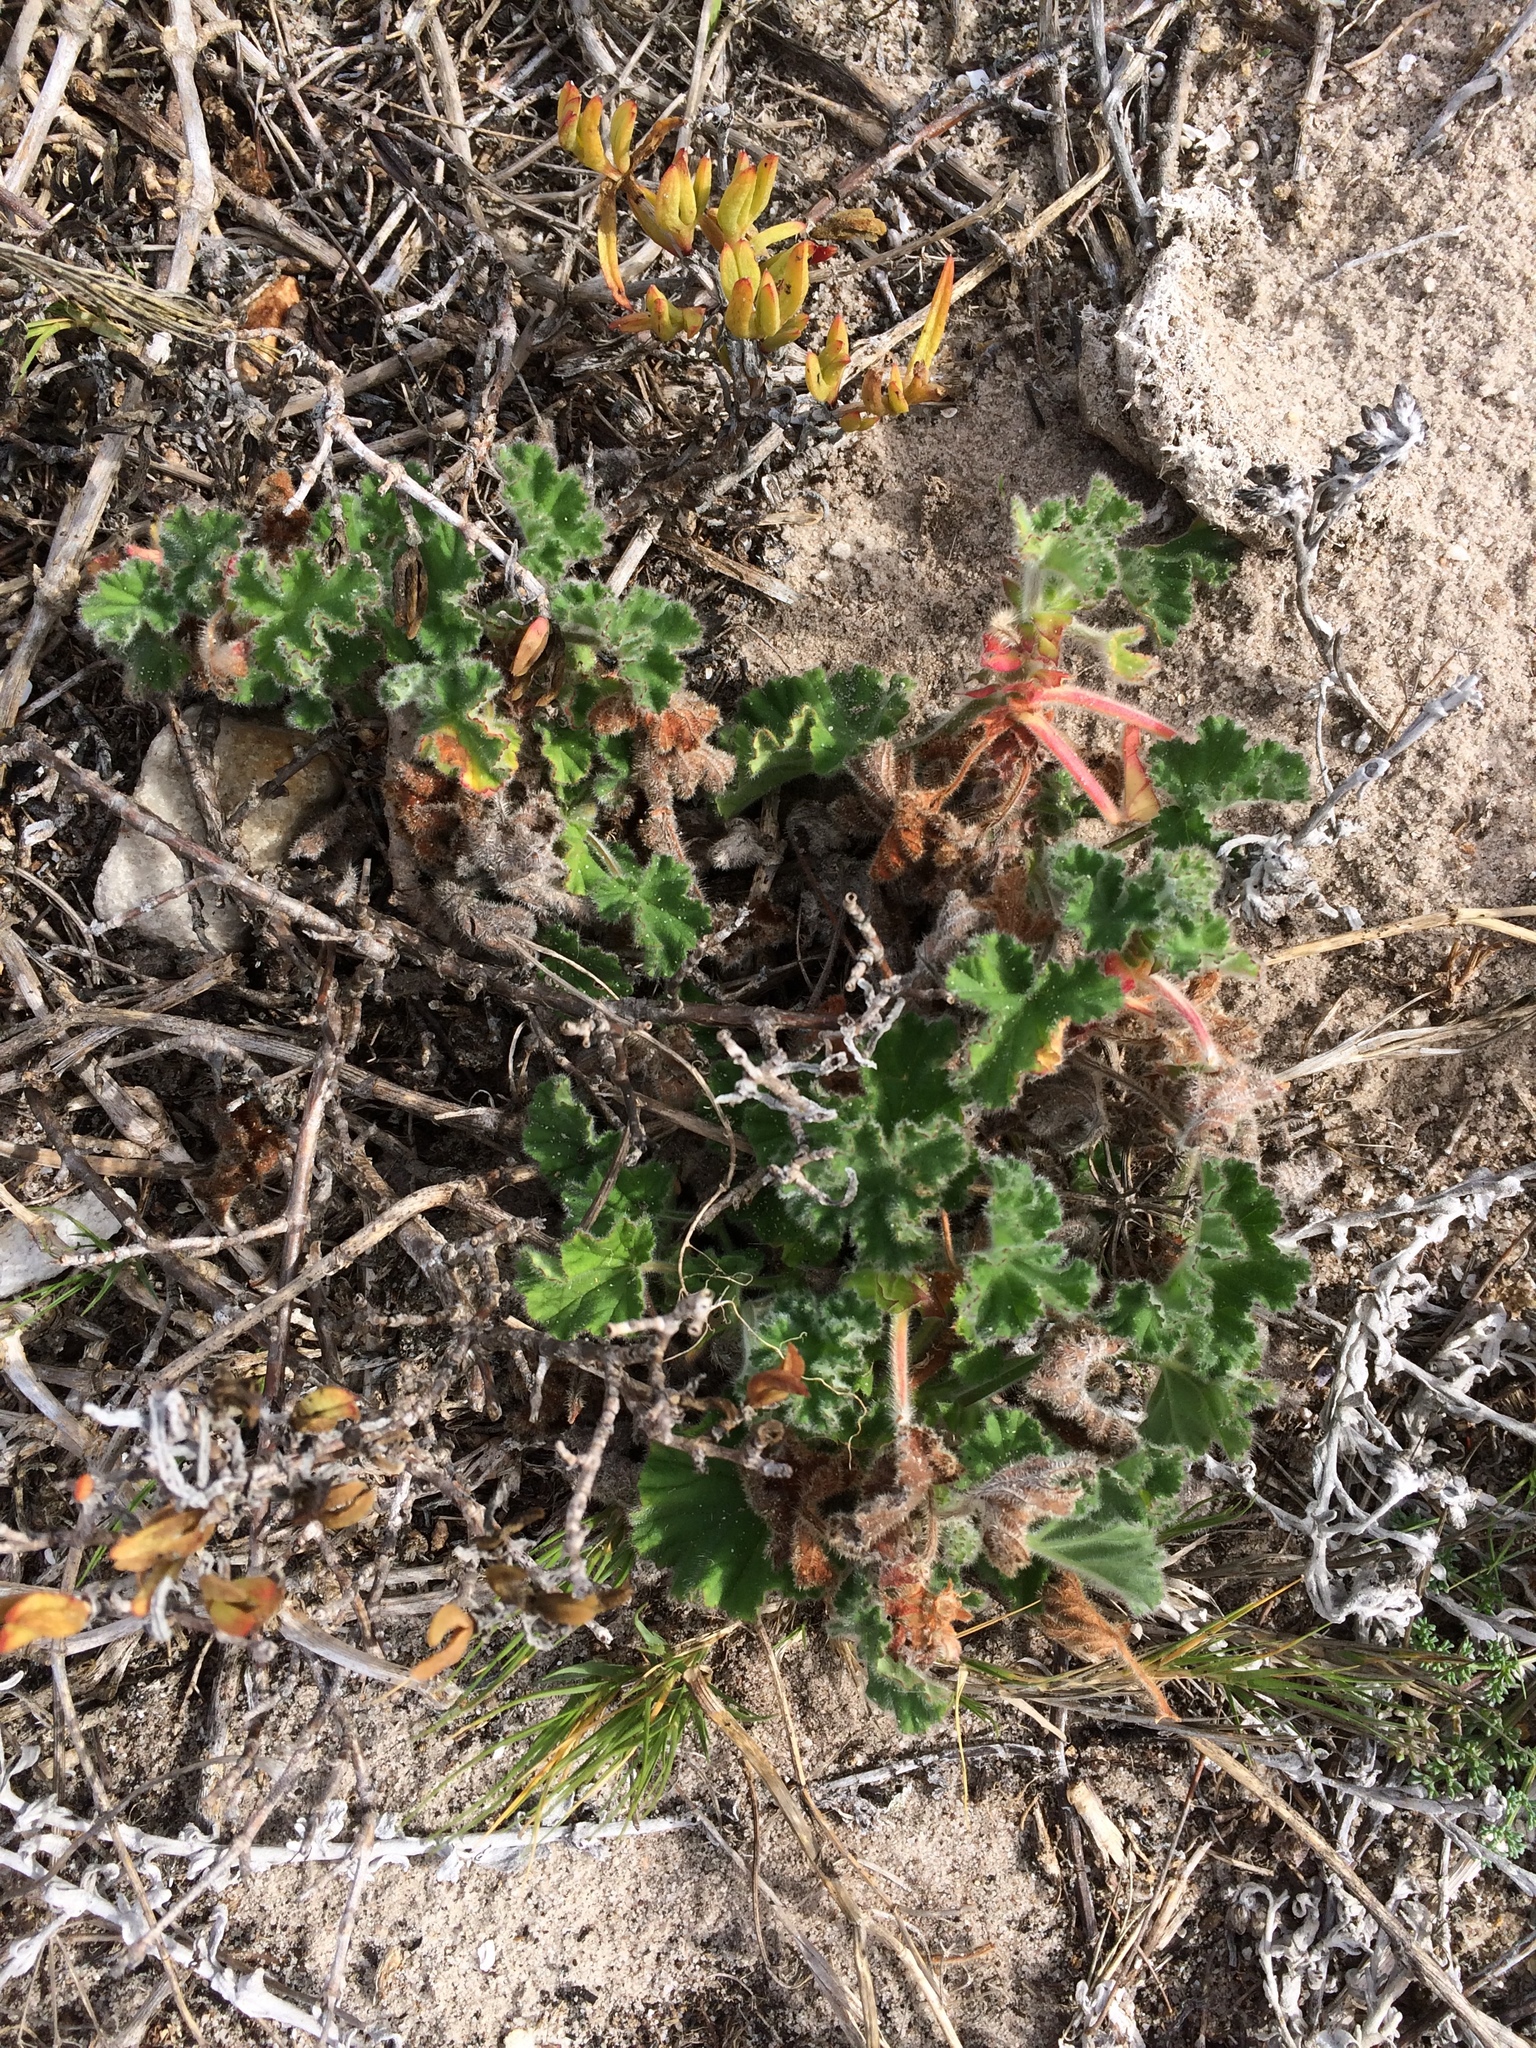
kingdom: Plantae
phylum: Tracheophyta
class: Magnoliopsida
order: Geraniales
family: Geraniaceae
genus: Pelargonium
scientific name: Pelargonium capitatum
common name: Rose scented geranium
